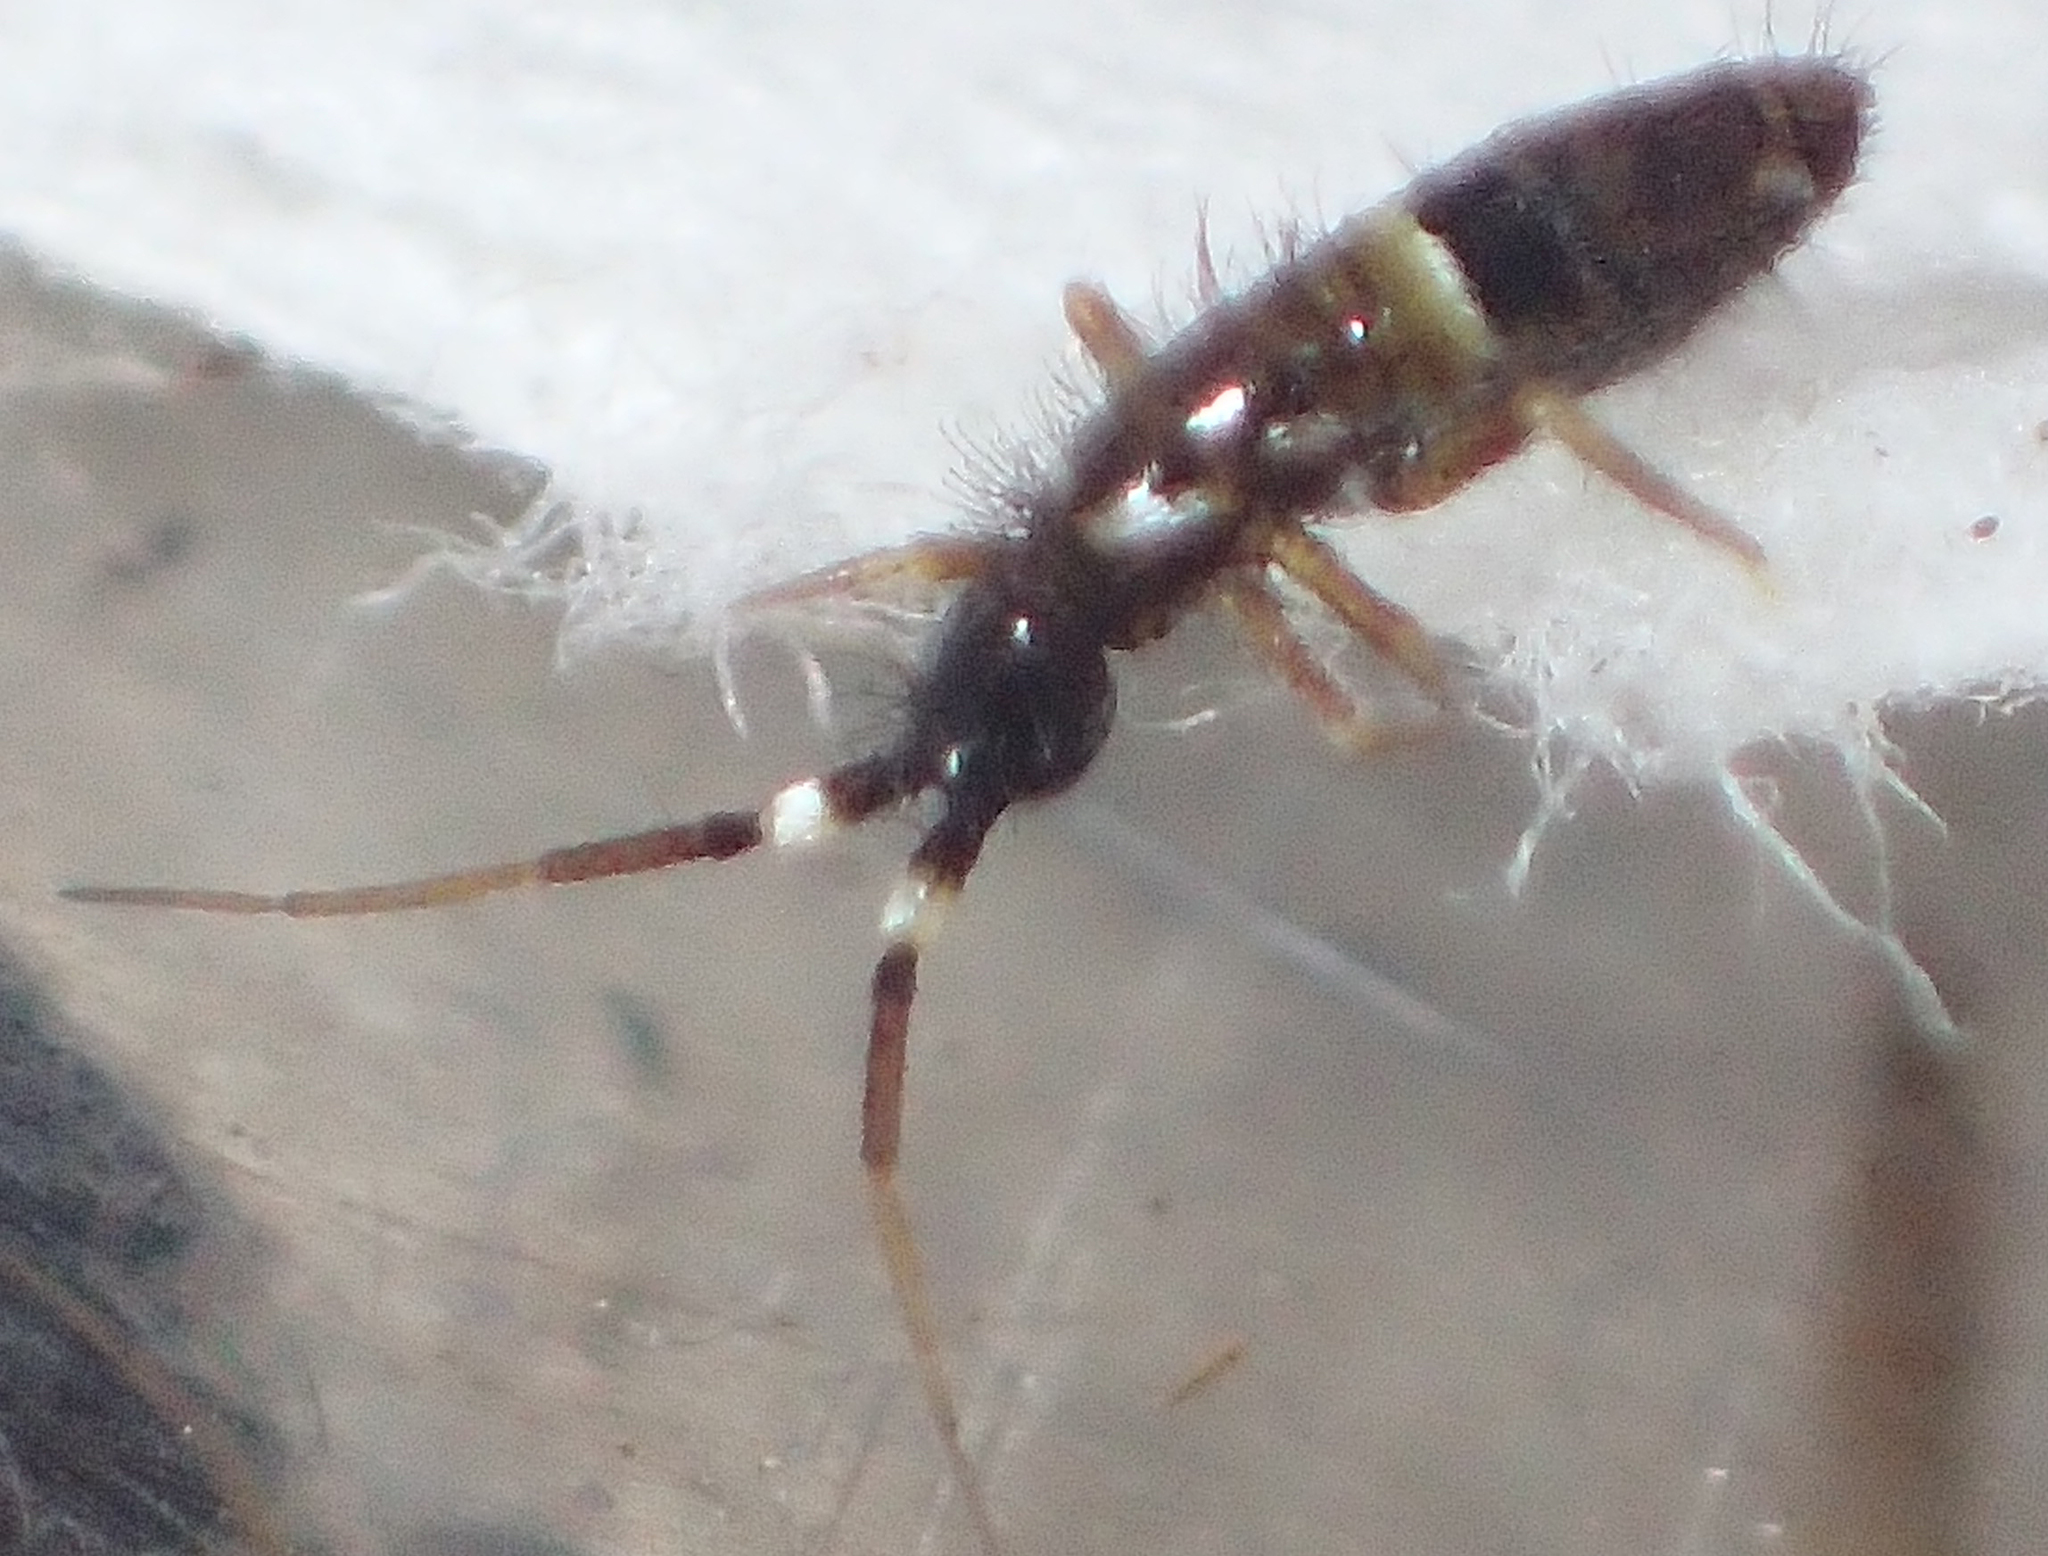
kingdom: Animalia
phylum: Arthropoda
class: Collembola
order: Entomobryomorpha
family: Orchesellidae
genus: Orchesella
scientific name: Orchesella cincta
